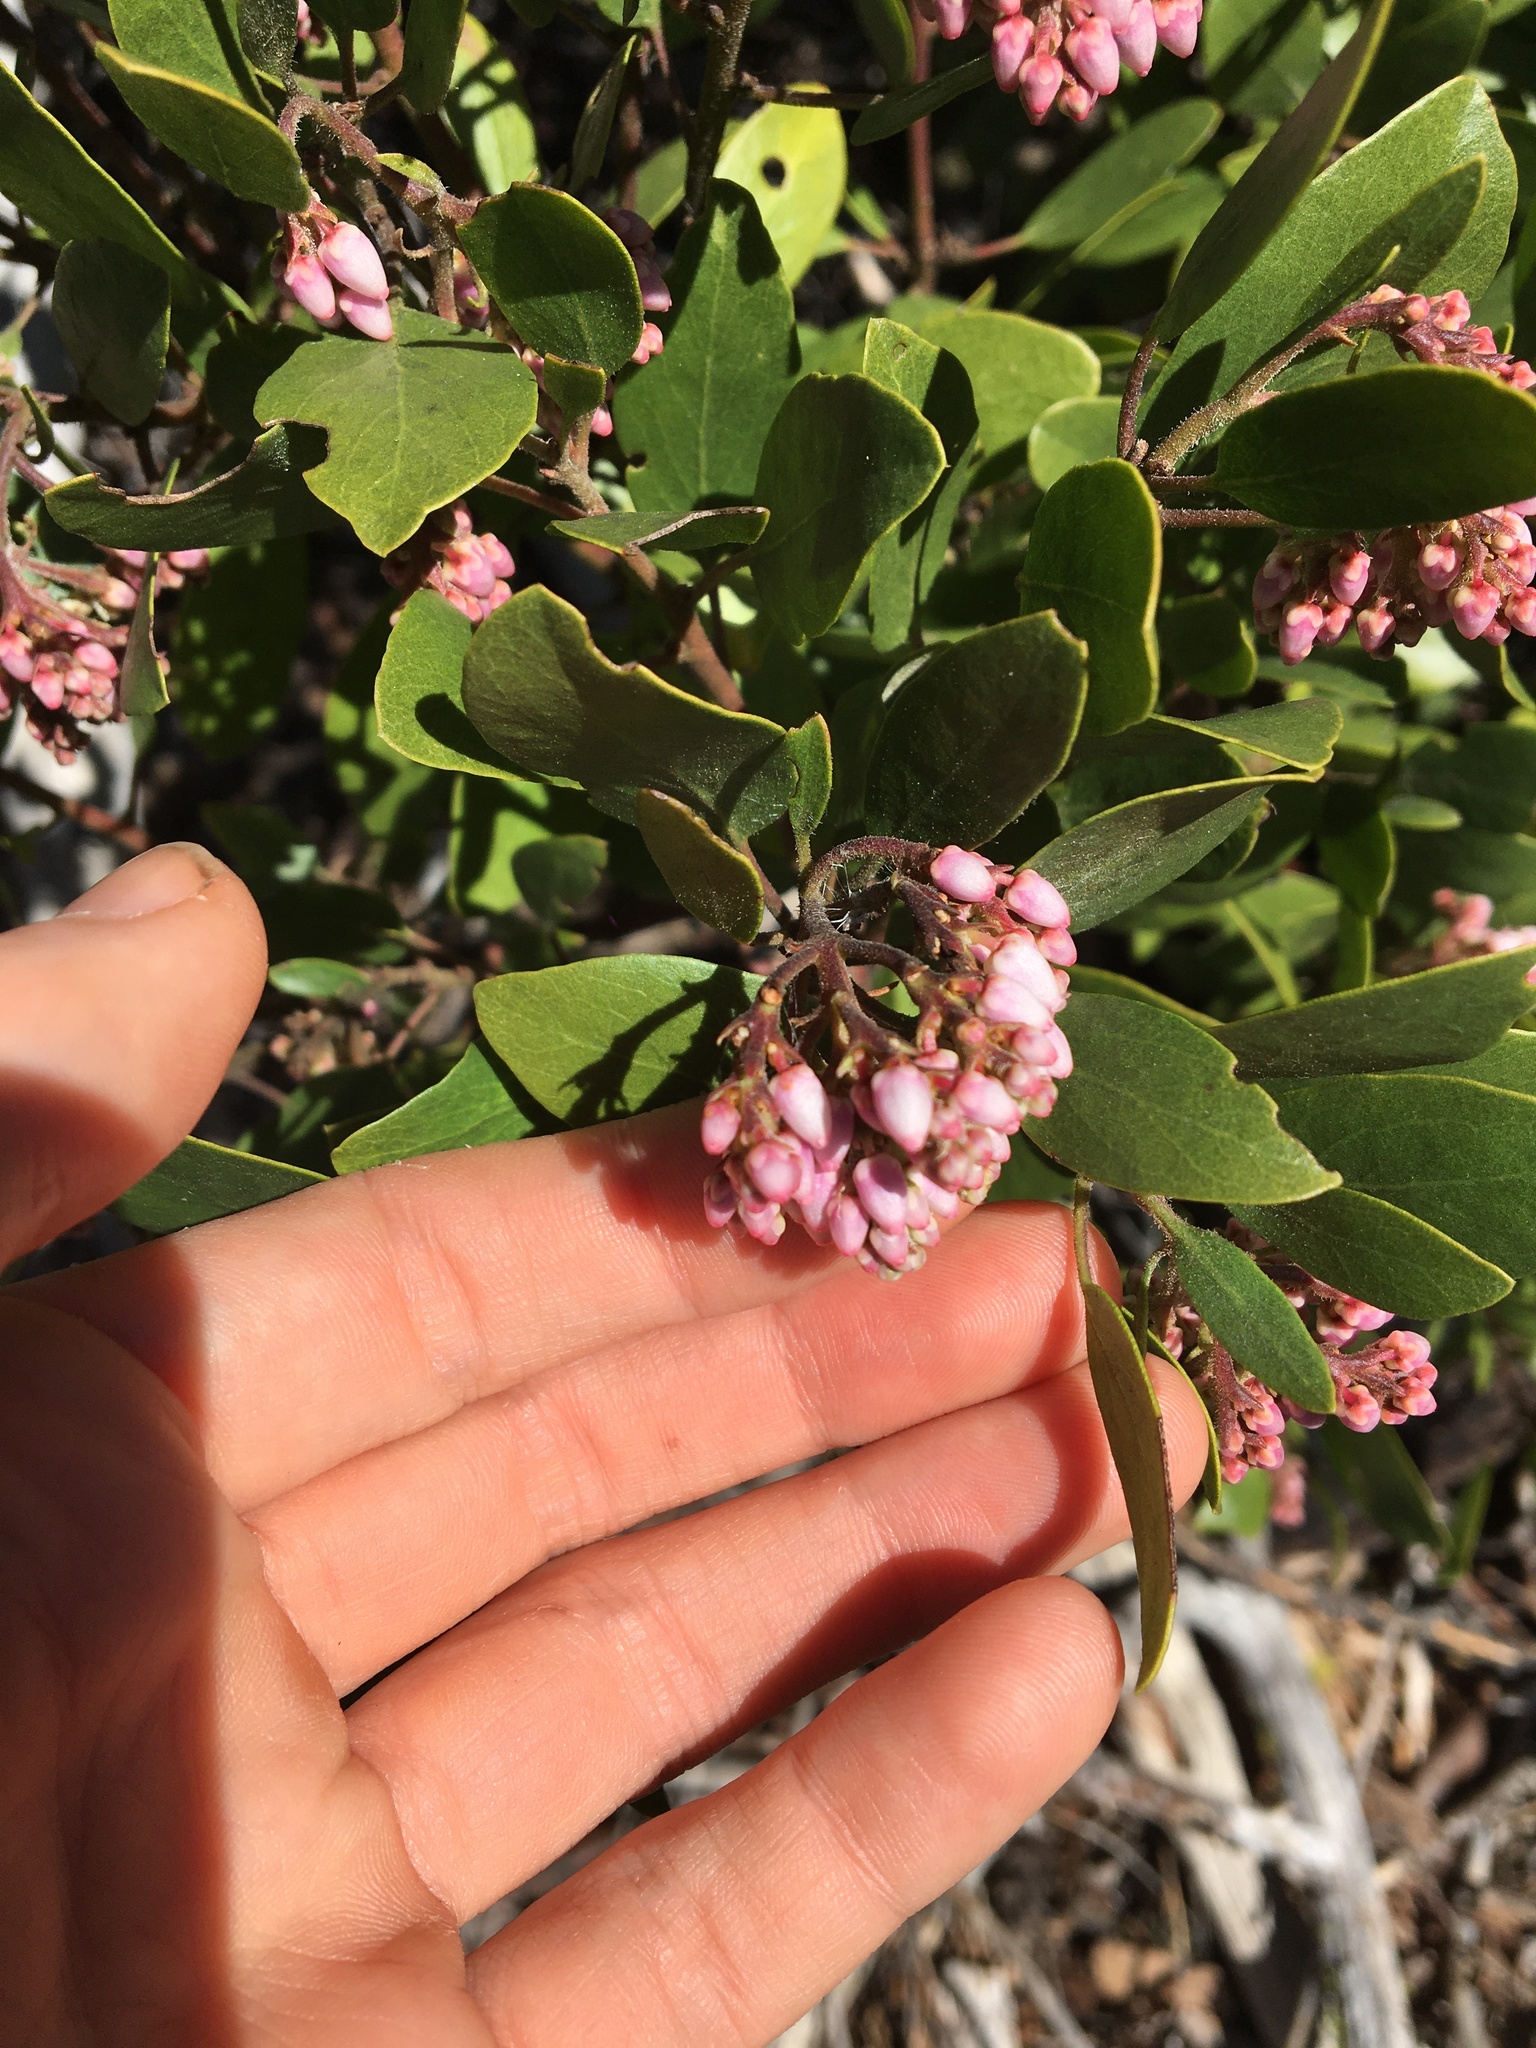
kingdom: Plantae
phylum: Tracheophyta
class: Magnoliopsida
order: Ericales
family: Ericaceae
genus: Arctostaphylos
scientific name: Arctostaphylos patula
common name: Green-leaf manzanita
